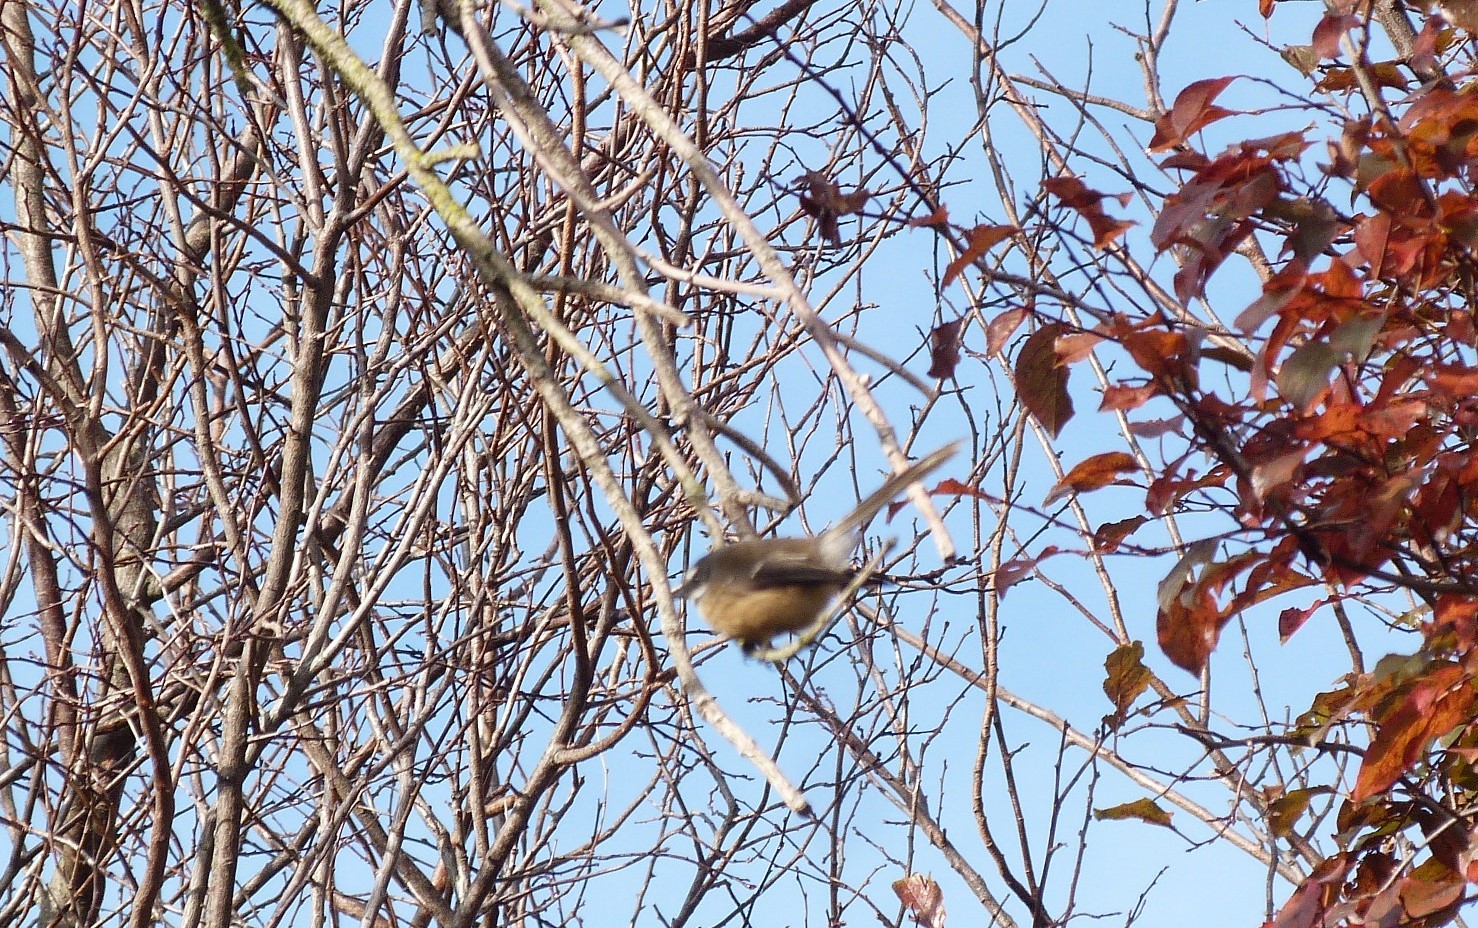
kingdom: Animalia
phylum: Chordata
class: Aves
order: Passeriformes
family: Rhipiduridae
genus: Rhipidura
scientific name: Rhipidura fuliginosa
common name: New zealand fantail
